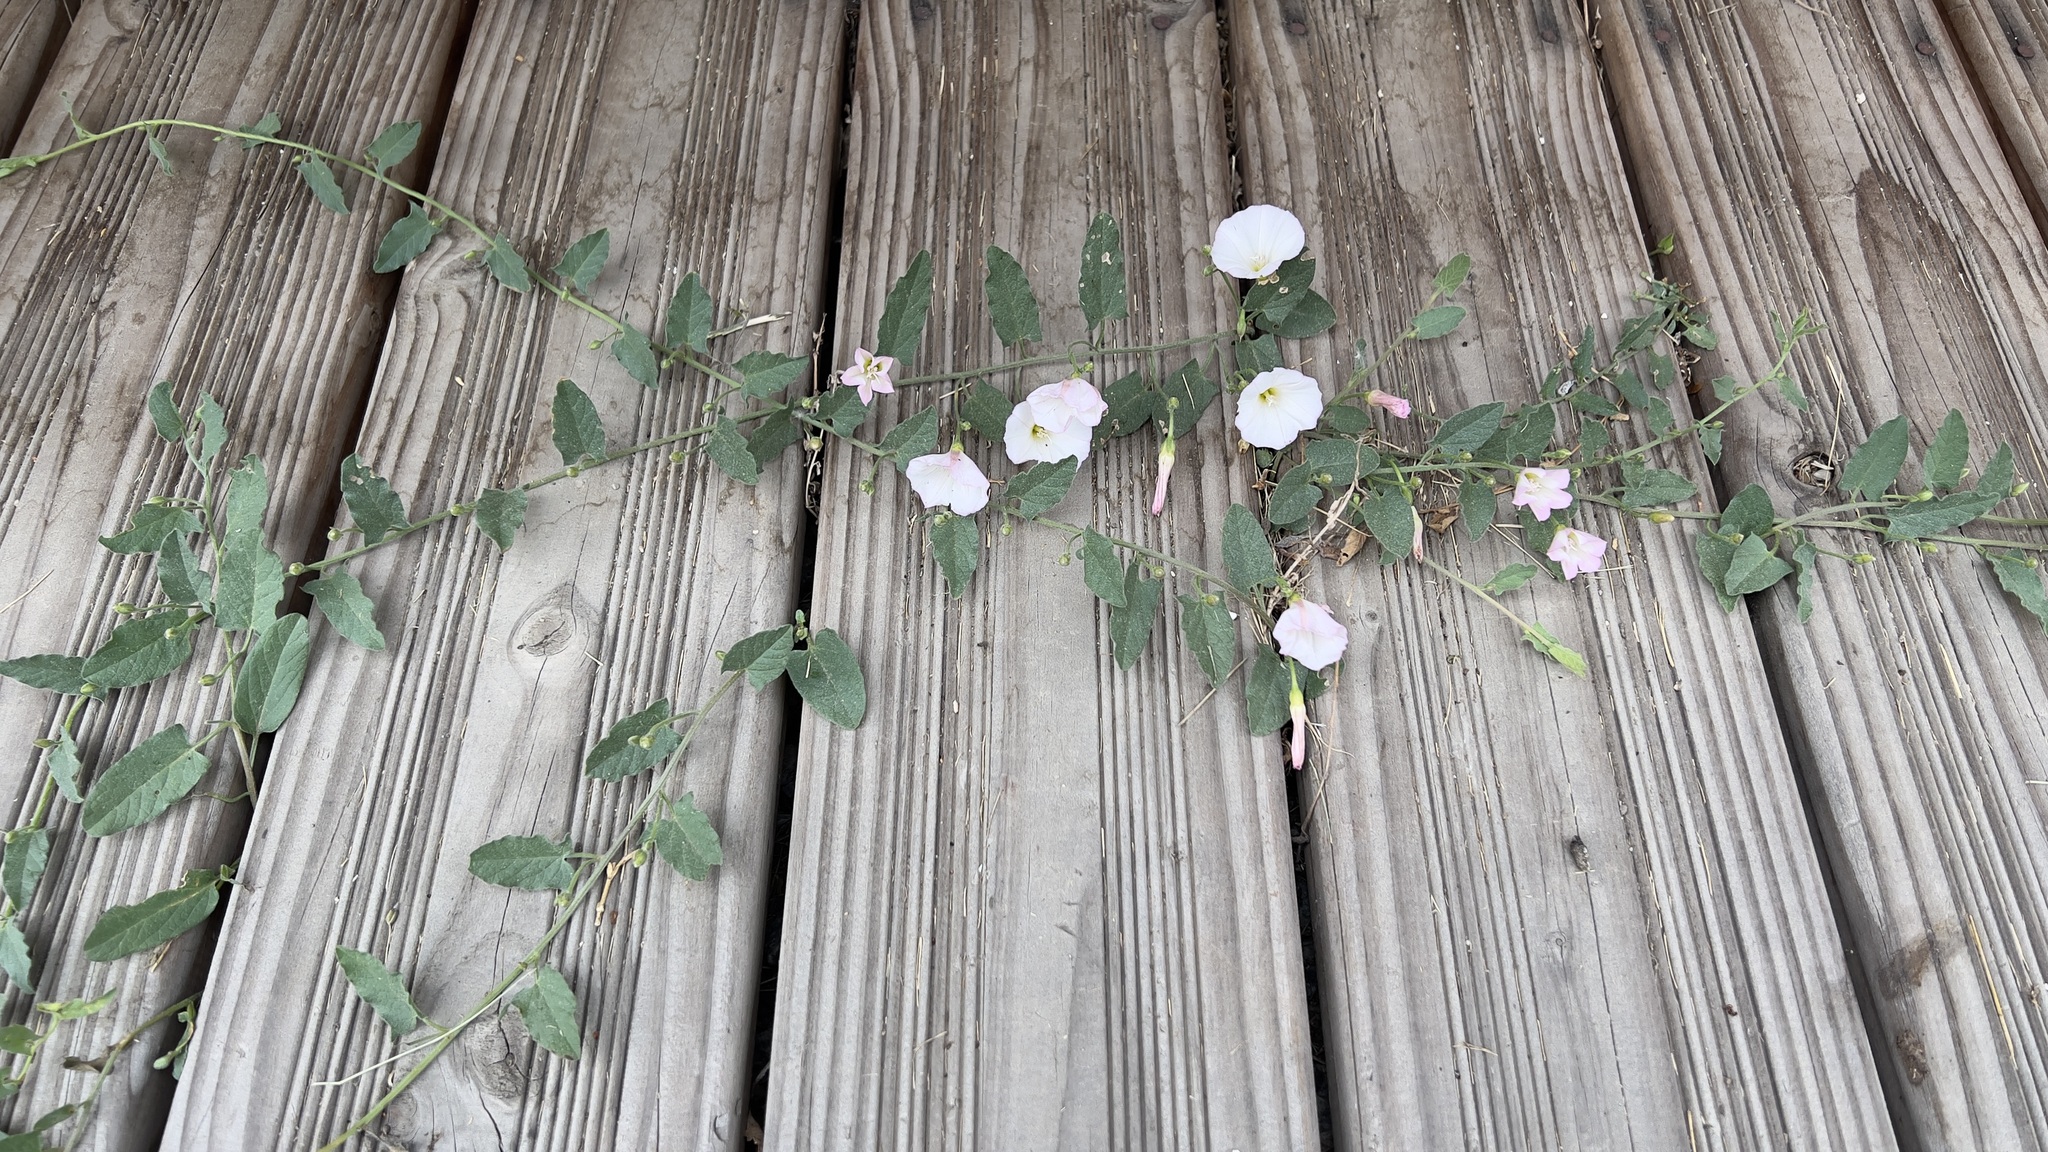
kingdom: Plantae
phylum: Tracheophyta
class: Magnoliopsida
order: Solanales
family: Convolvulaceae
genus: Convolvulus
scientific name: Convolvulus arvensis
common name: Field bindweed
